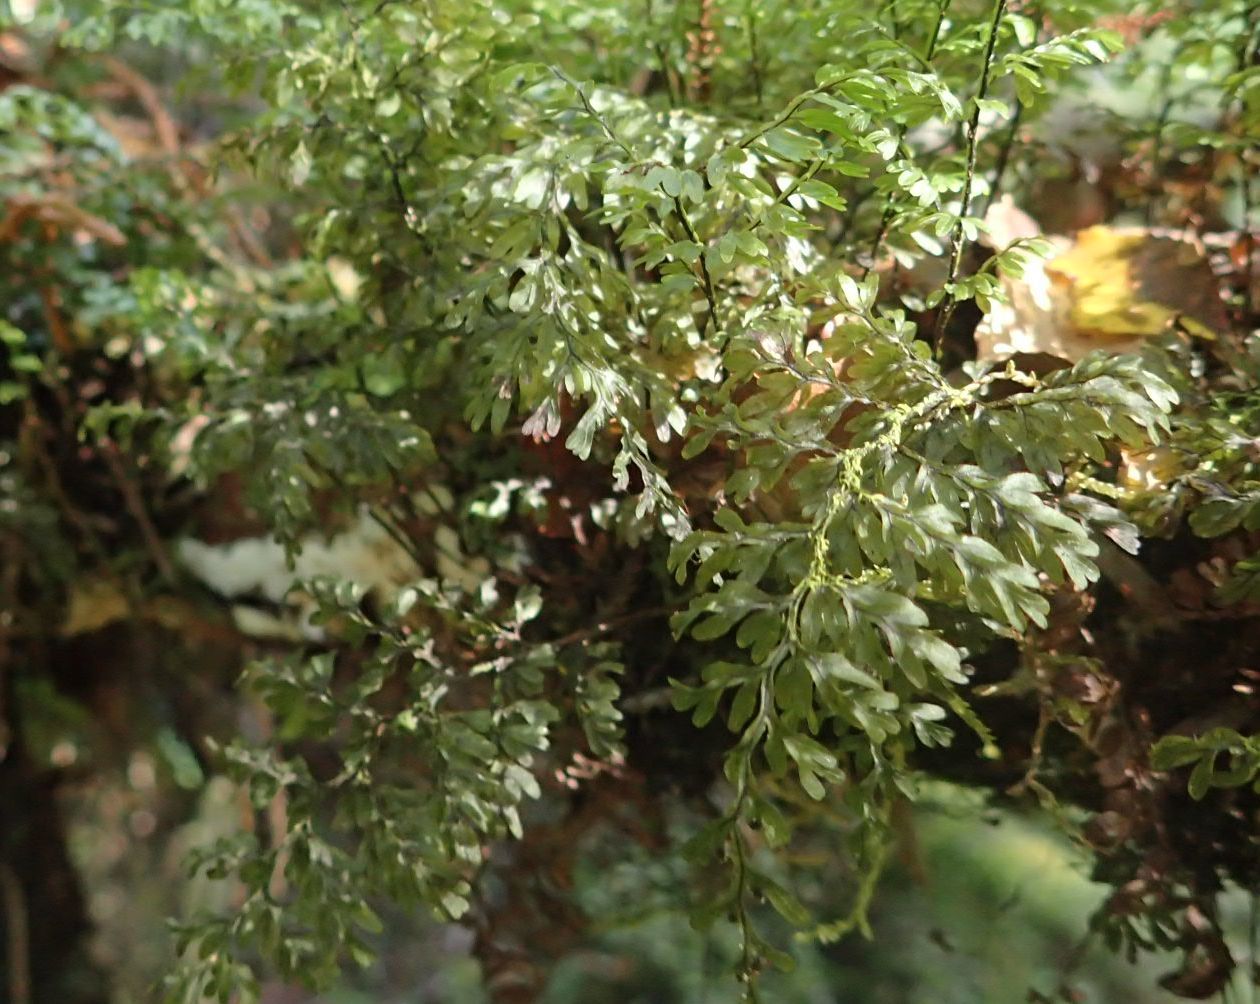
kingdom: Plantae
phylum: Tracheophyta
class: Polypodiopsida
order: Hymenophyllales
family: Hymenophyllaceae
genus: Hymenophyllum
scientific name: Hymenophyllum sanguinolentum
